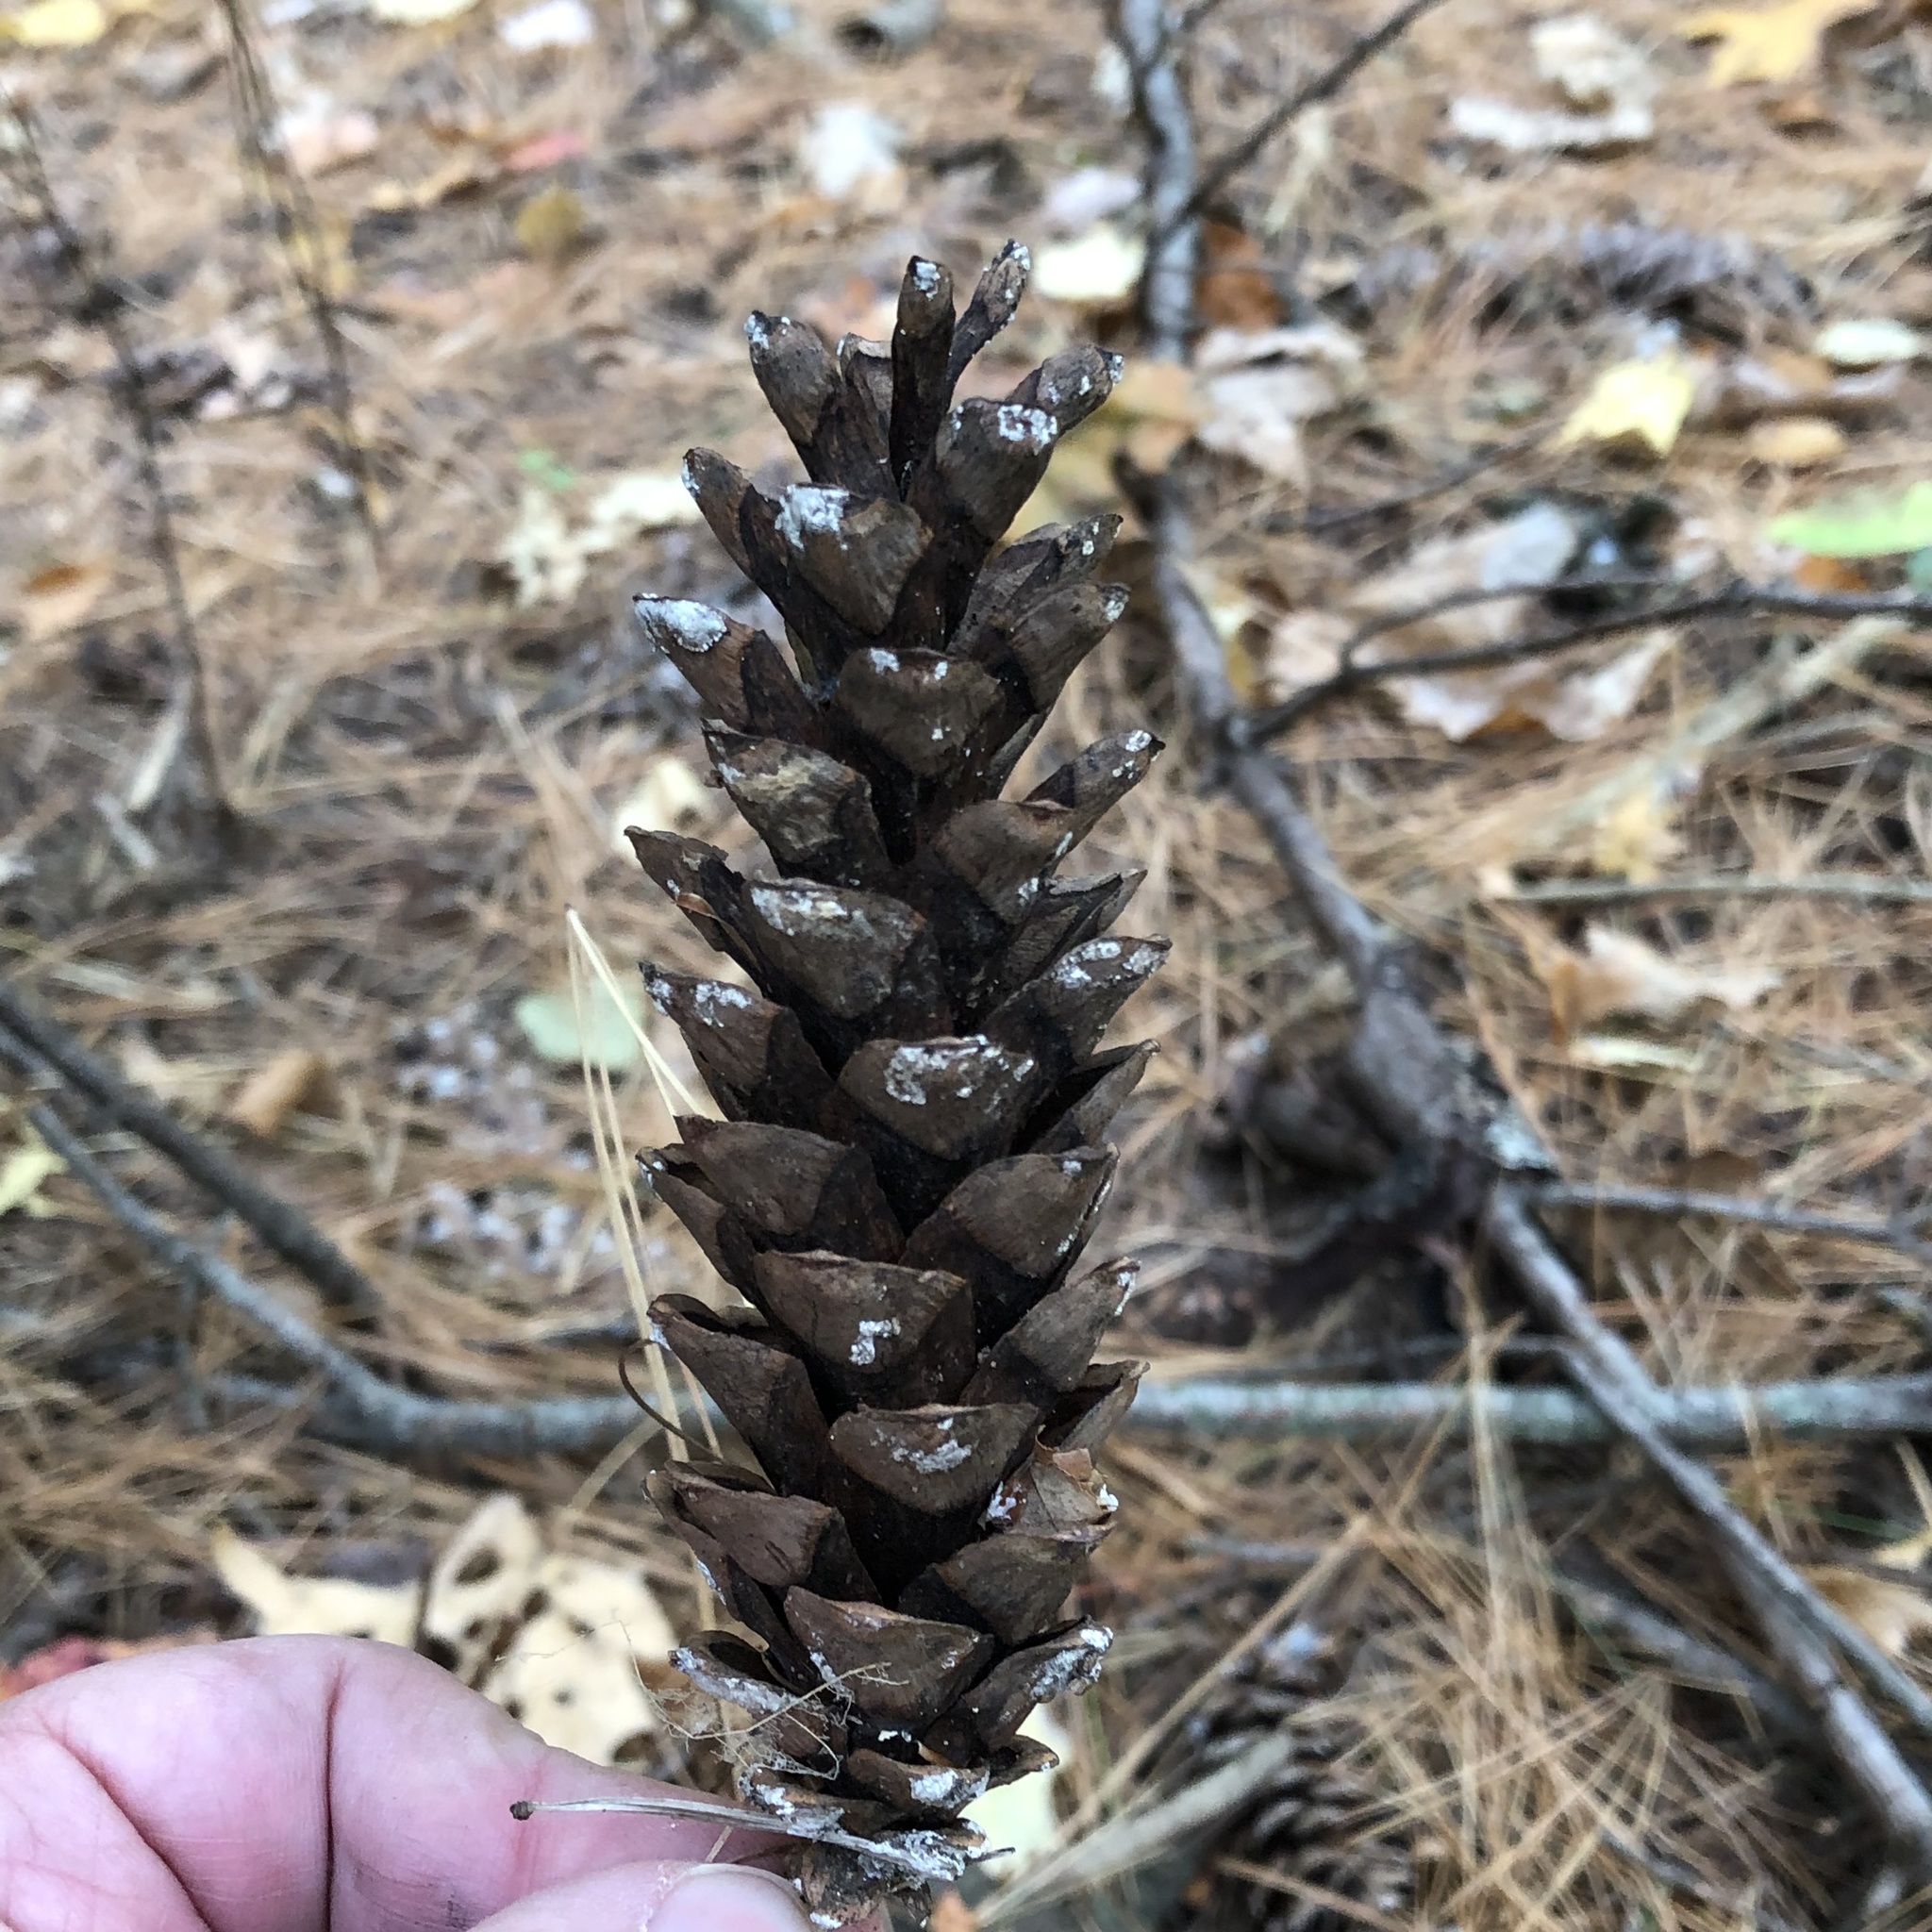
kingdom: Plantae
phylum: Tracheophyta
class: Pinopsida
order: Pinales
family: Pinaceae
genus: Pinus
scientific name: Pinus strobus
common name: Weymouth pine
